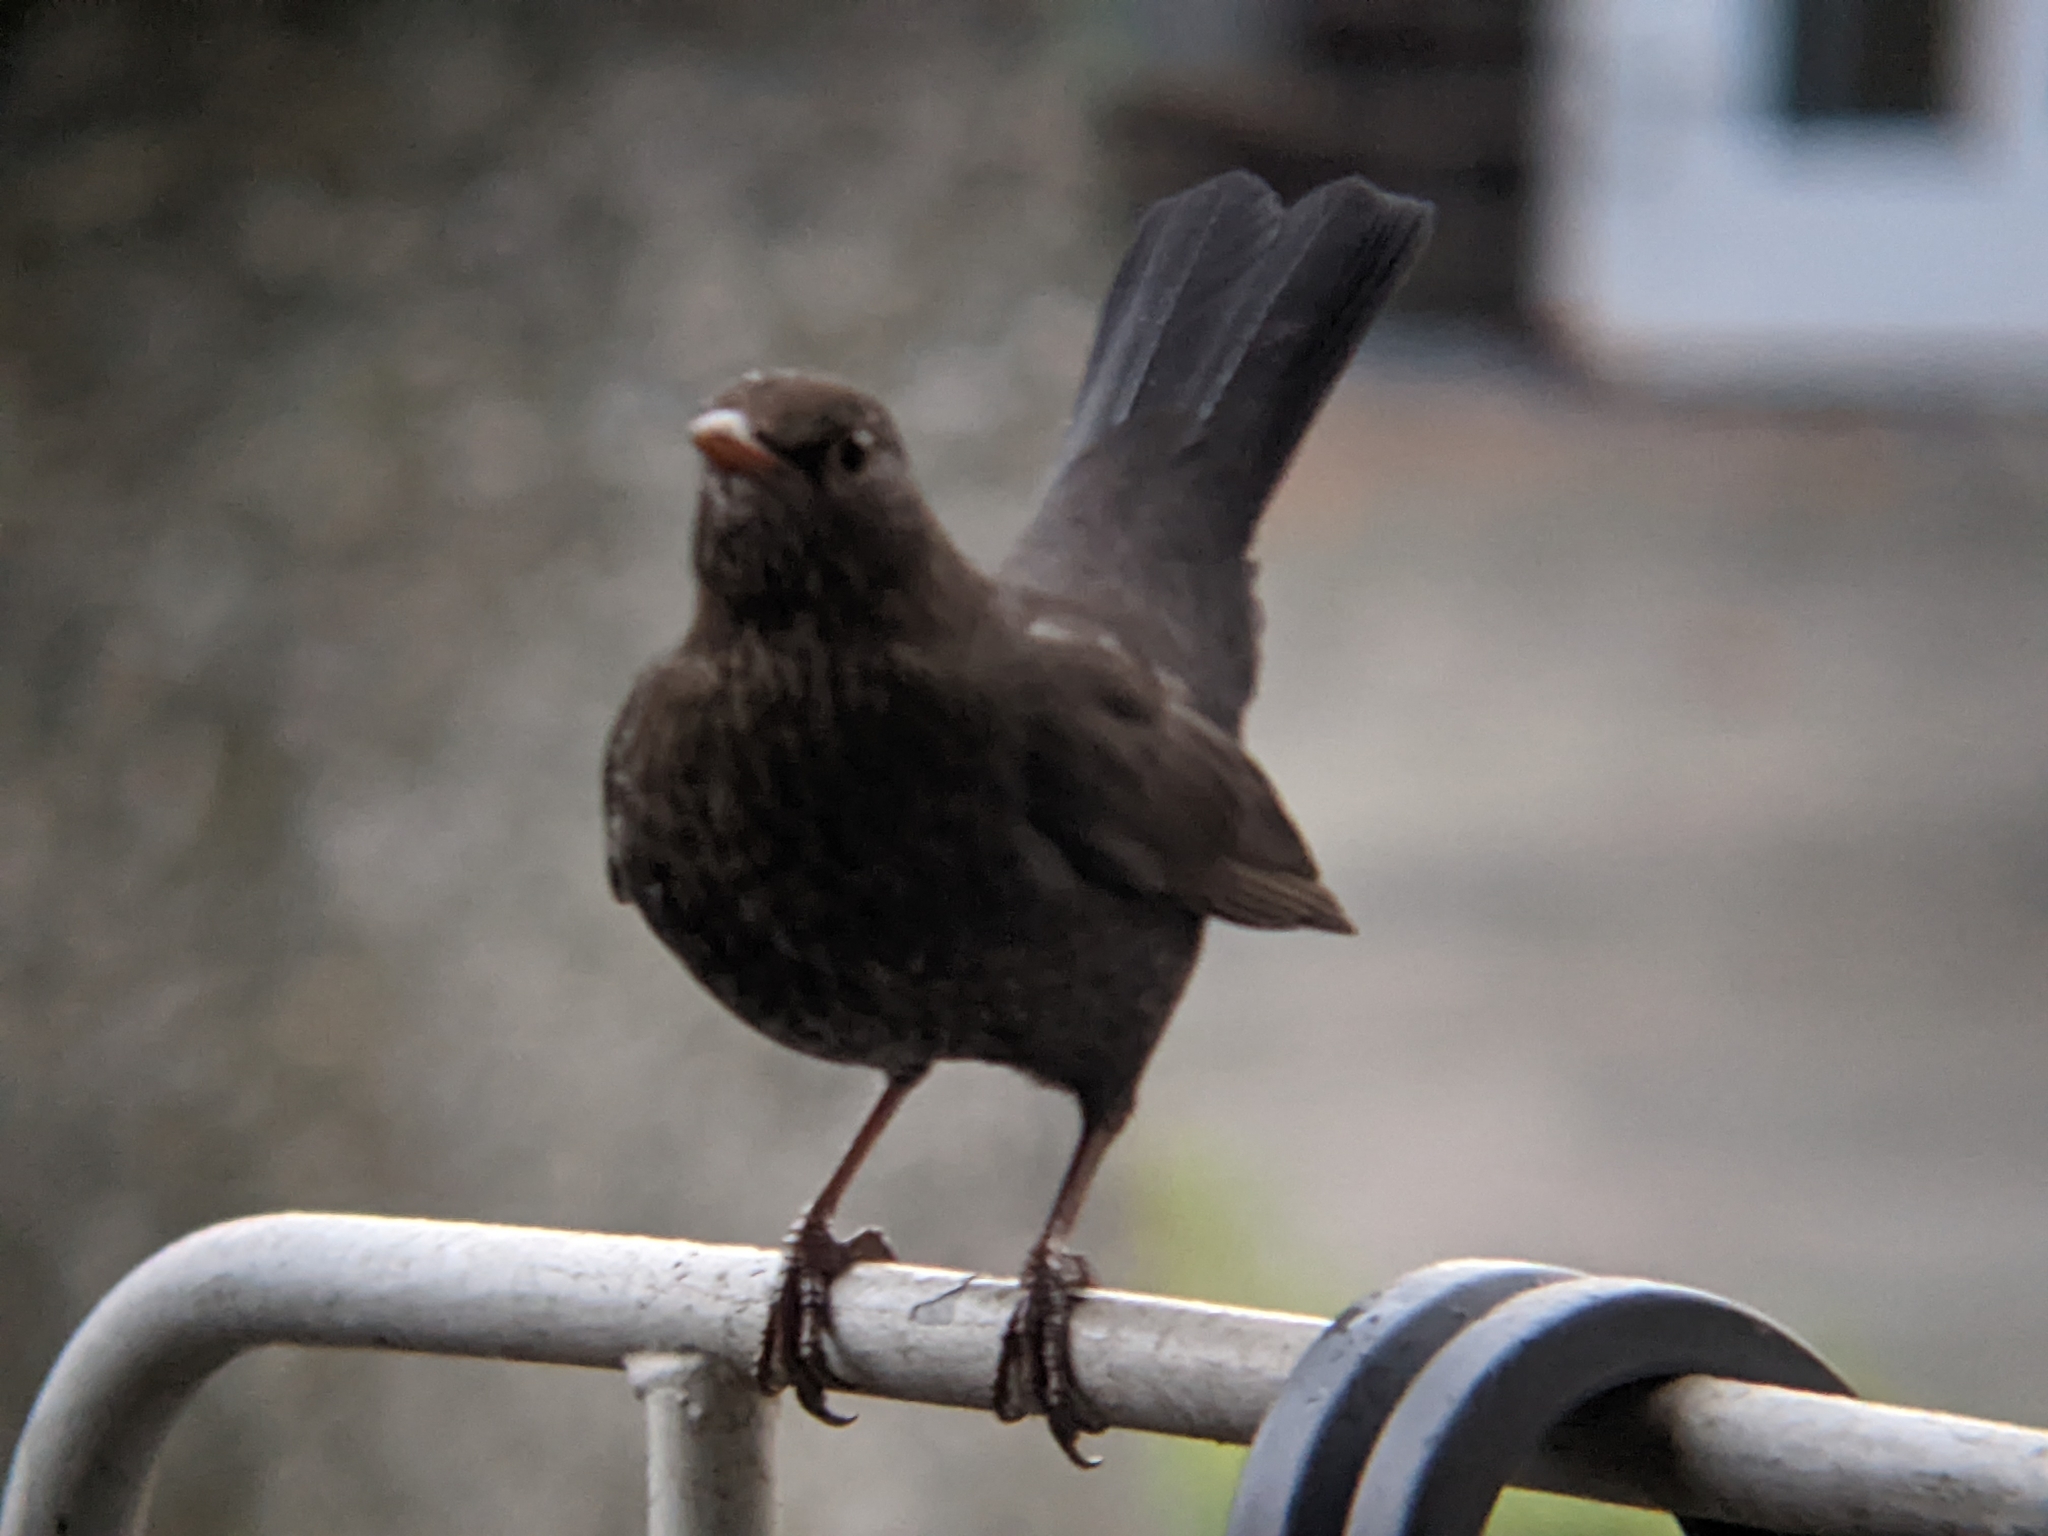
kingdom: Animalia
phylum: Chordata
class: Aves
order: Passeriformes
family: Turdidae
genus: Turdus
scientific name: Turdus merula
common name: Common blackbird
